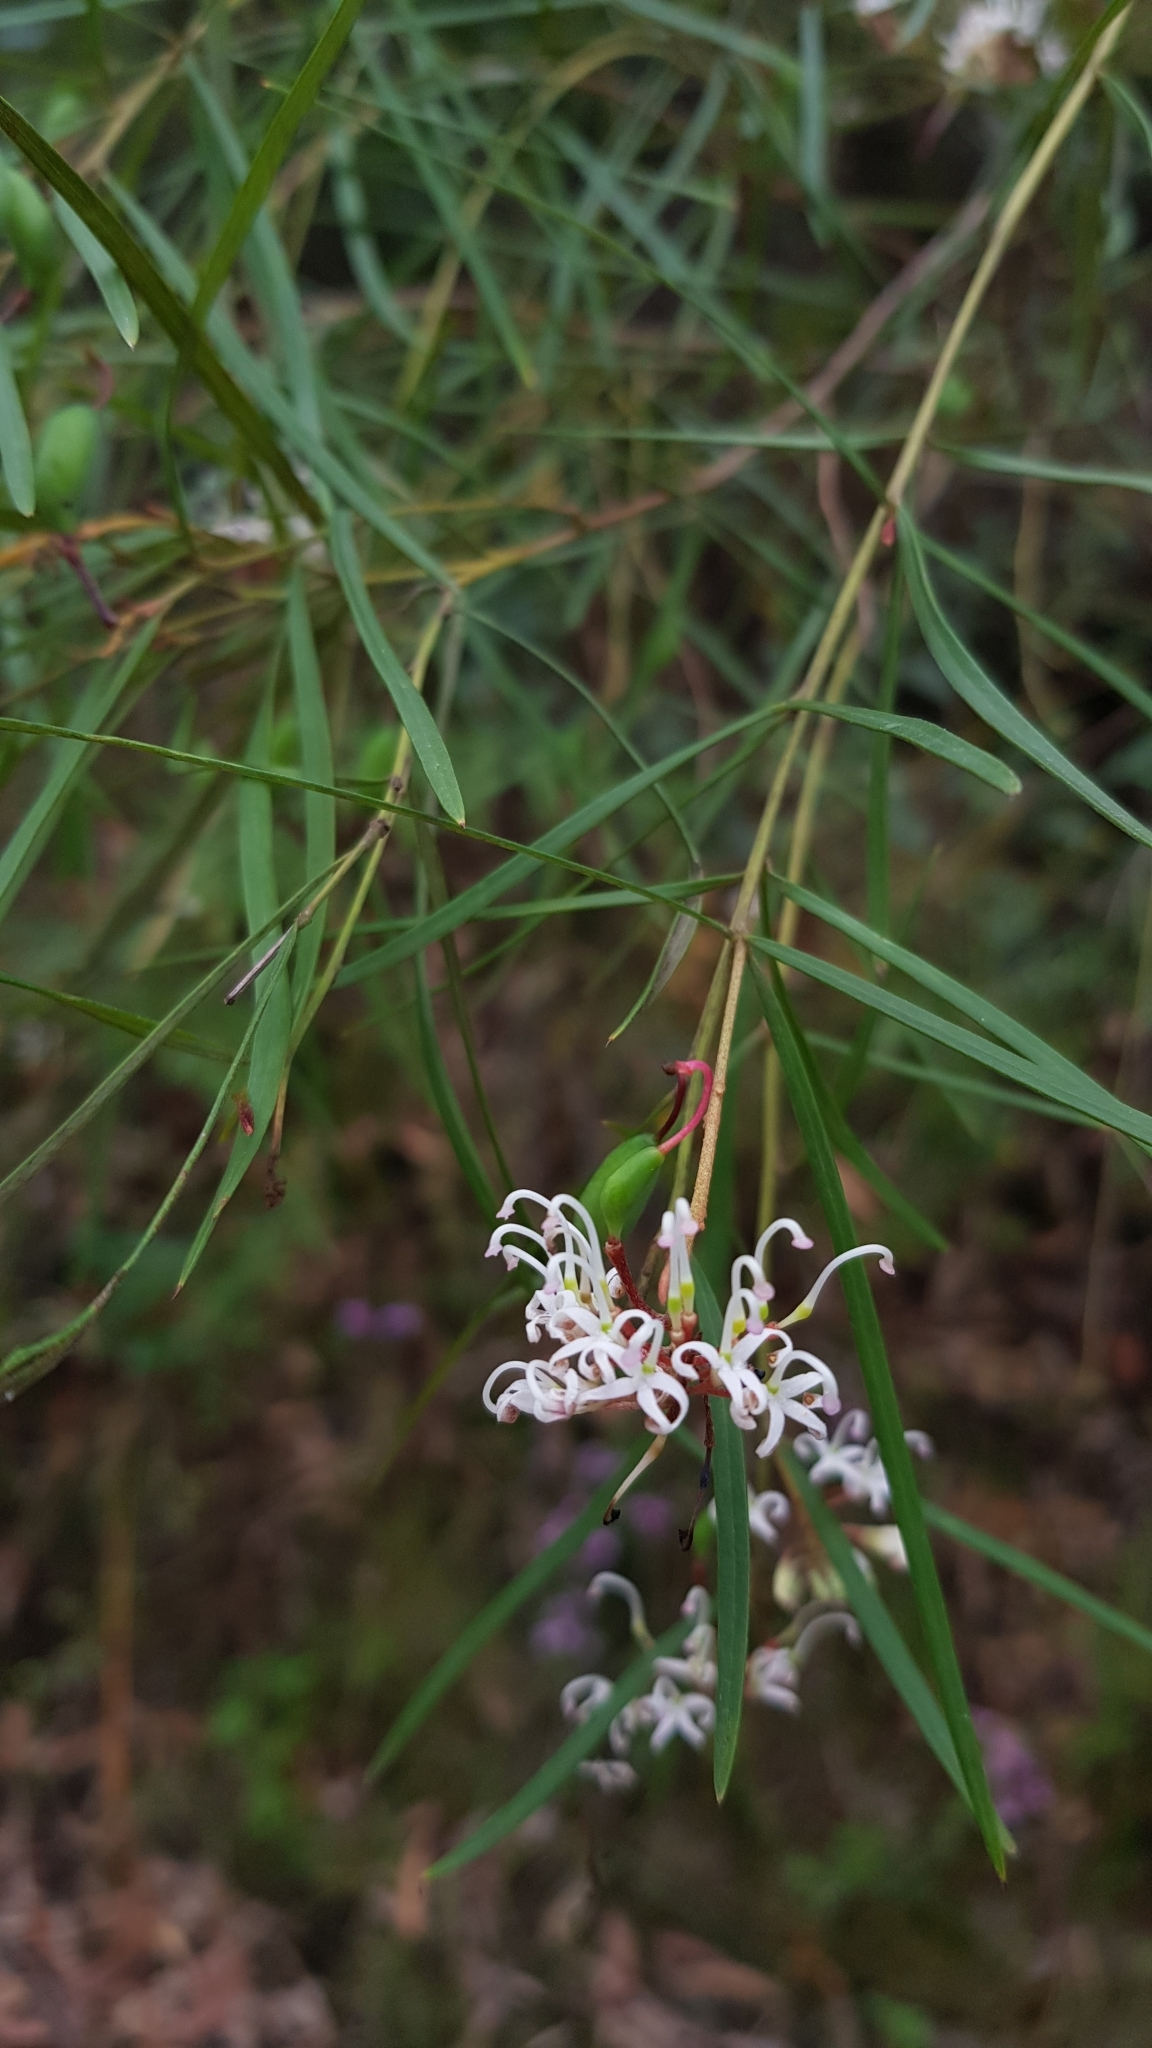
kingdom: Plantae
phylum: Tracheophyta
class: Magnoliopsida
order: Proteales
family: Proteaceae
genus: Grevillea
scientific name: Grevillea linearifolia
